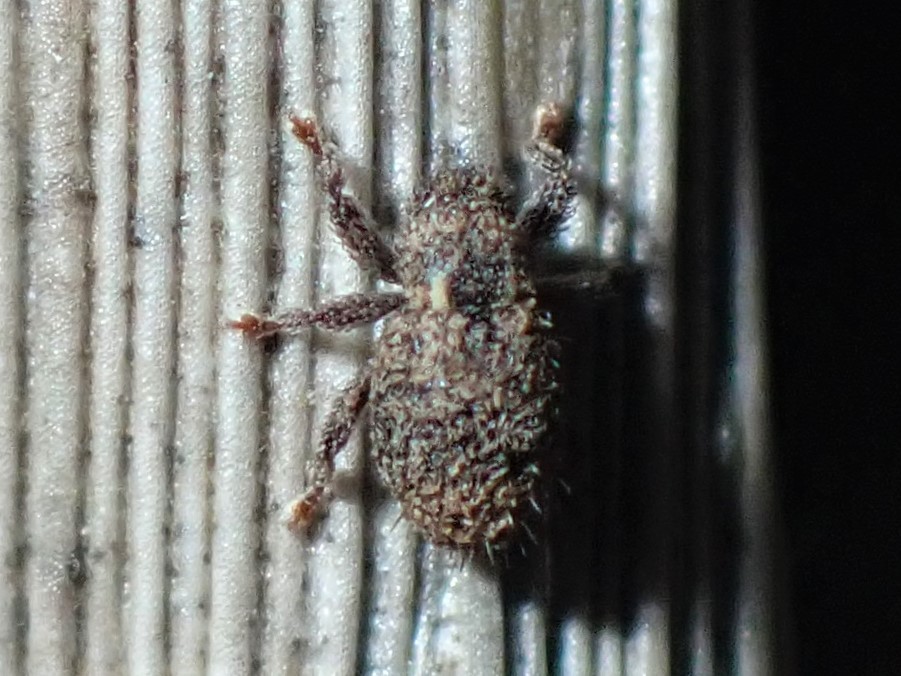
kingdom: Animalia
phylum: Arthropoda
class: Insecta
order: Coleoptera
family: Curculionidae
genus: Microcryptorhynchus
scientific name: Microcryptorhynchus perpusillus
